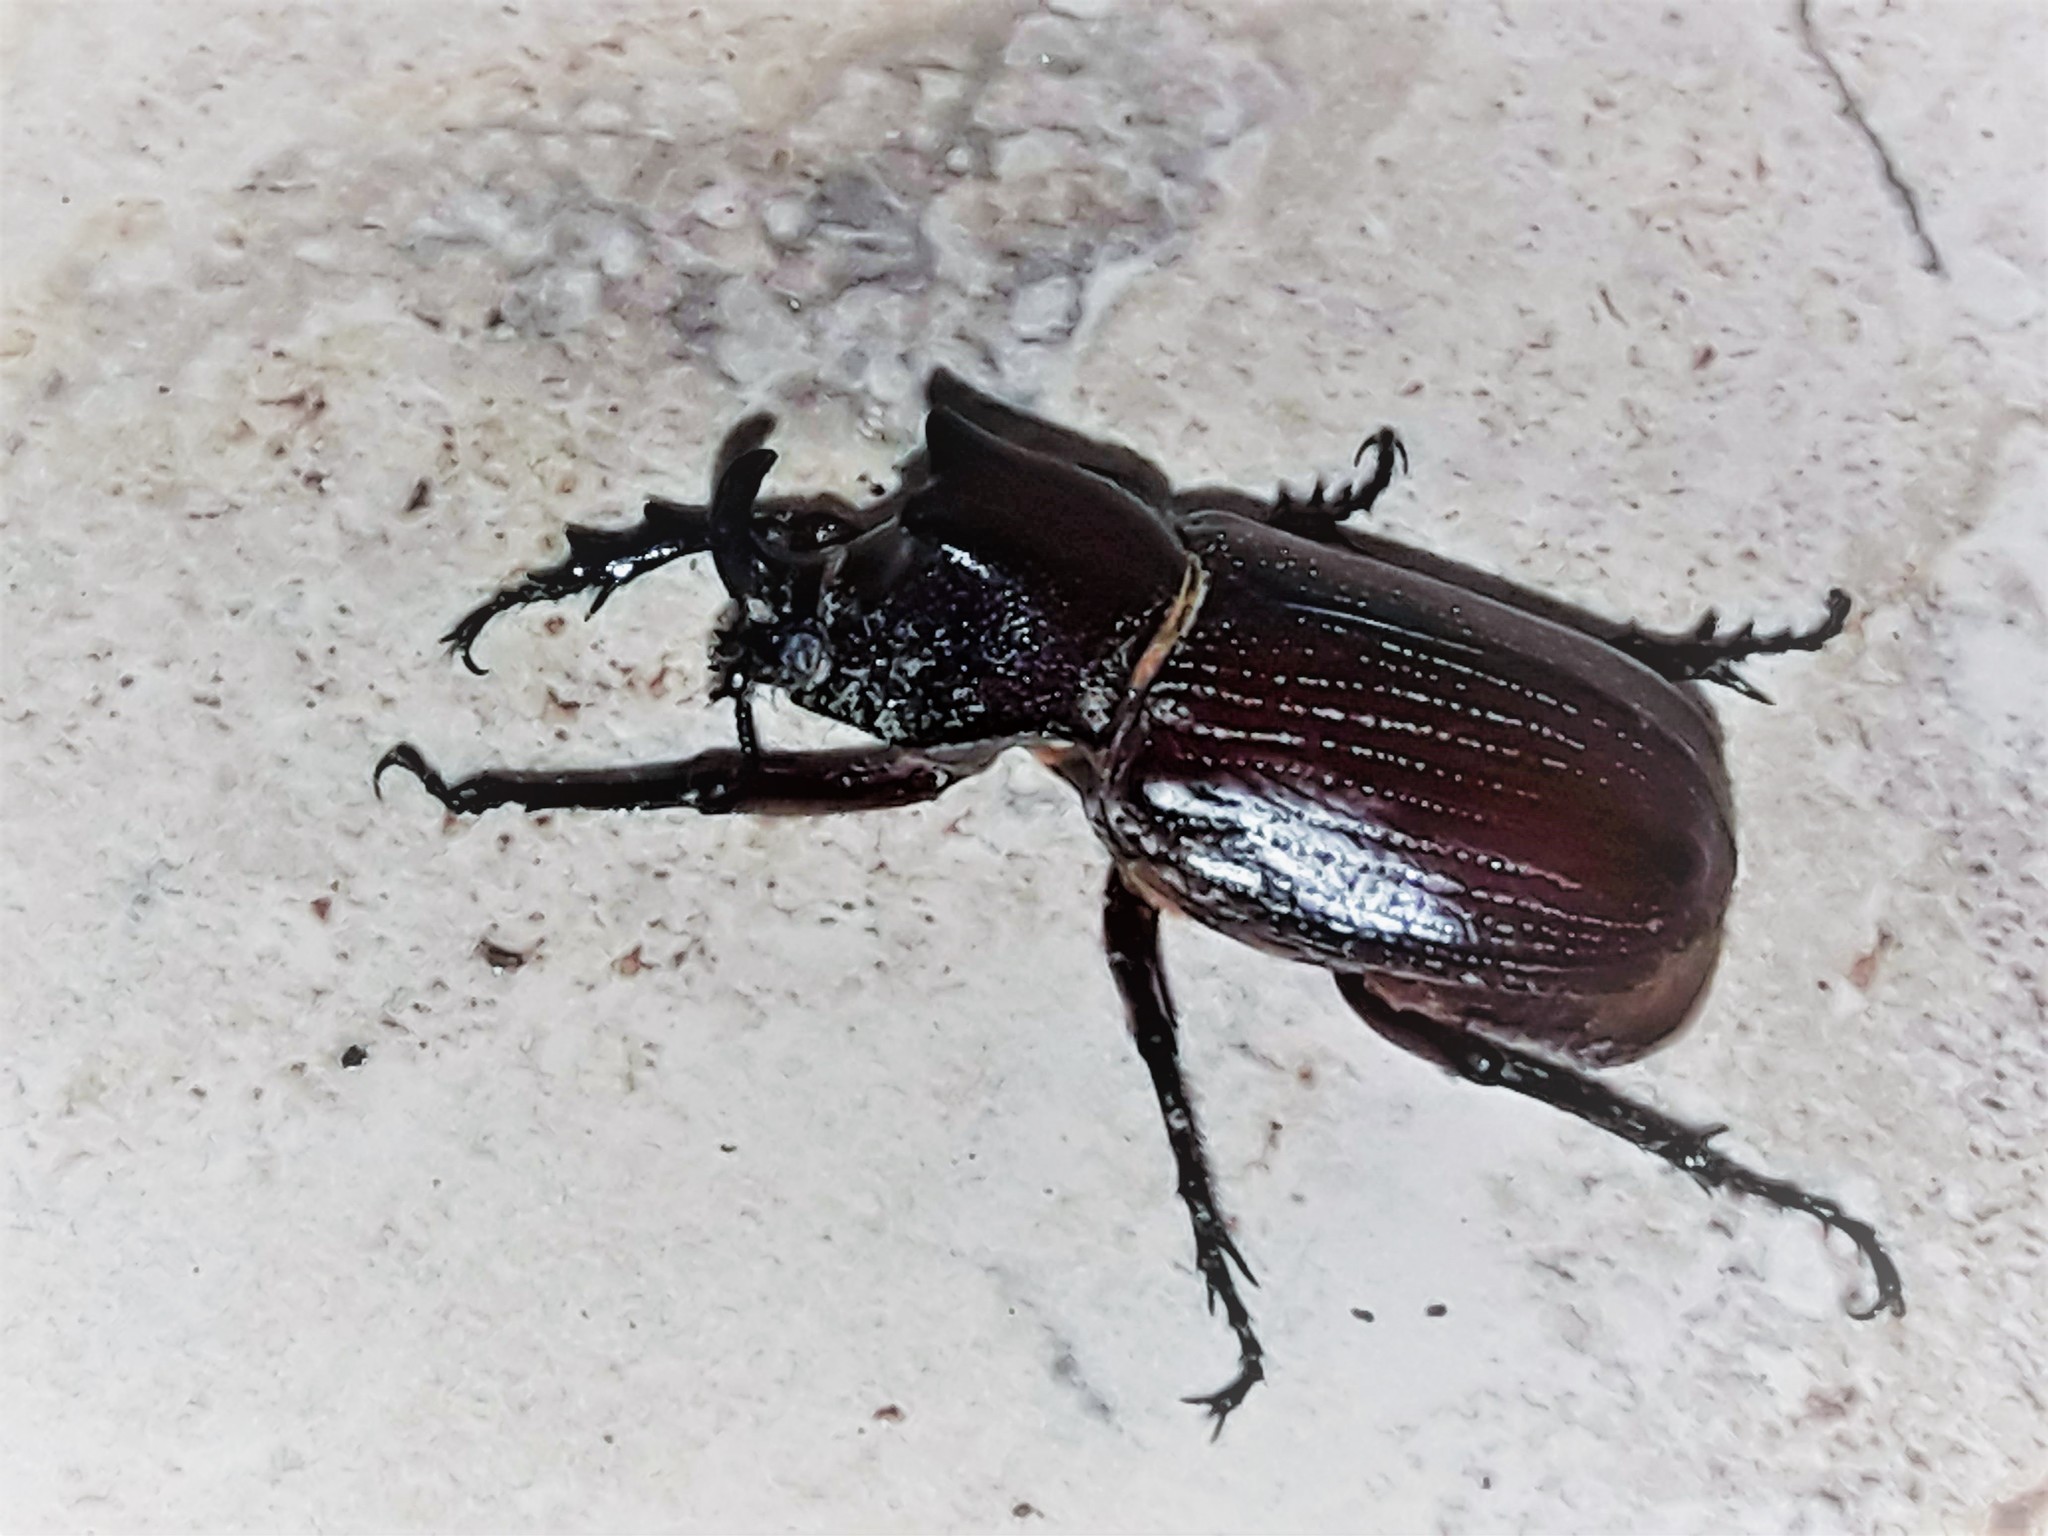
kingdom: Animalia
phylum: Arthropoda
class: Insecta
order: Coleoptera
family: Scarabaeidae
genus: Coelosis
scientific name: Coelosis biloba
